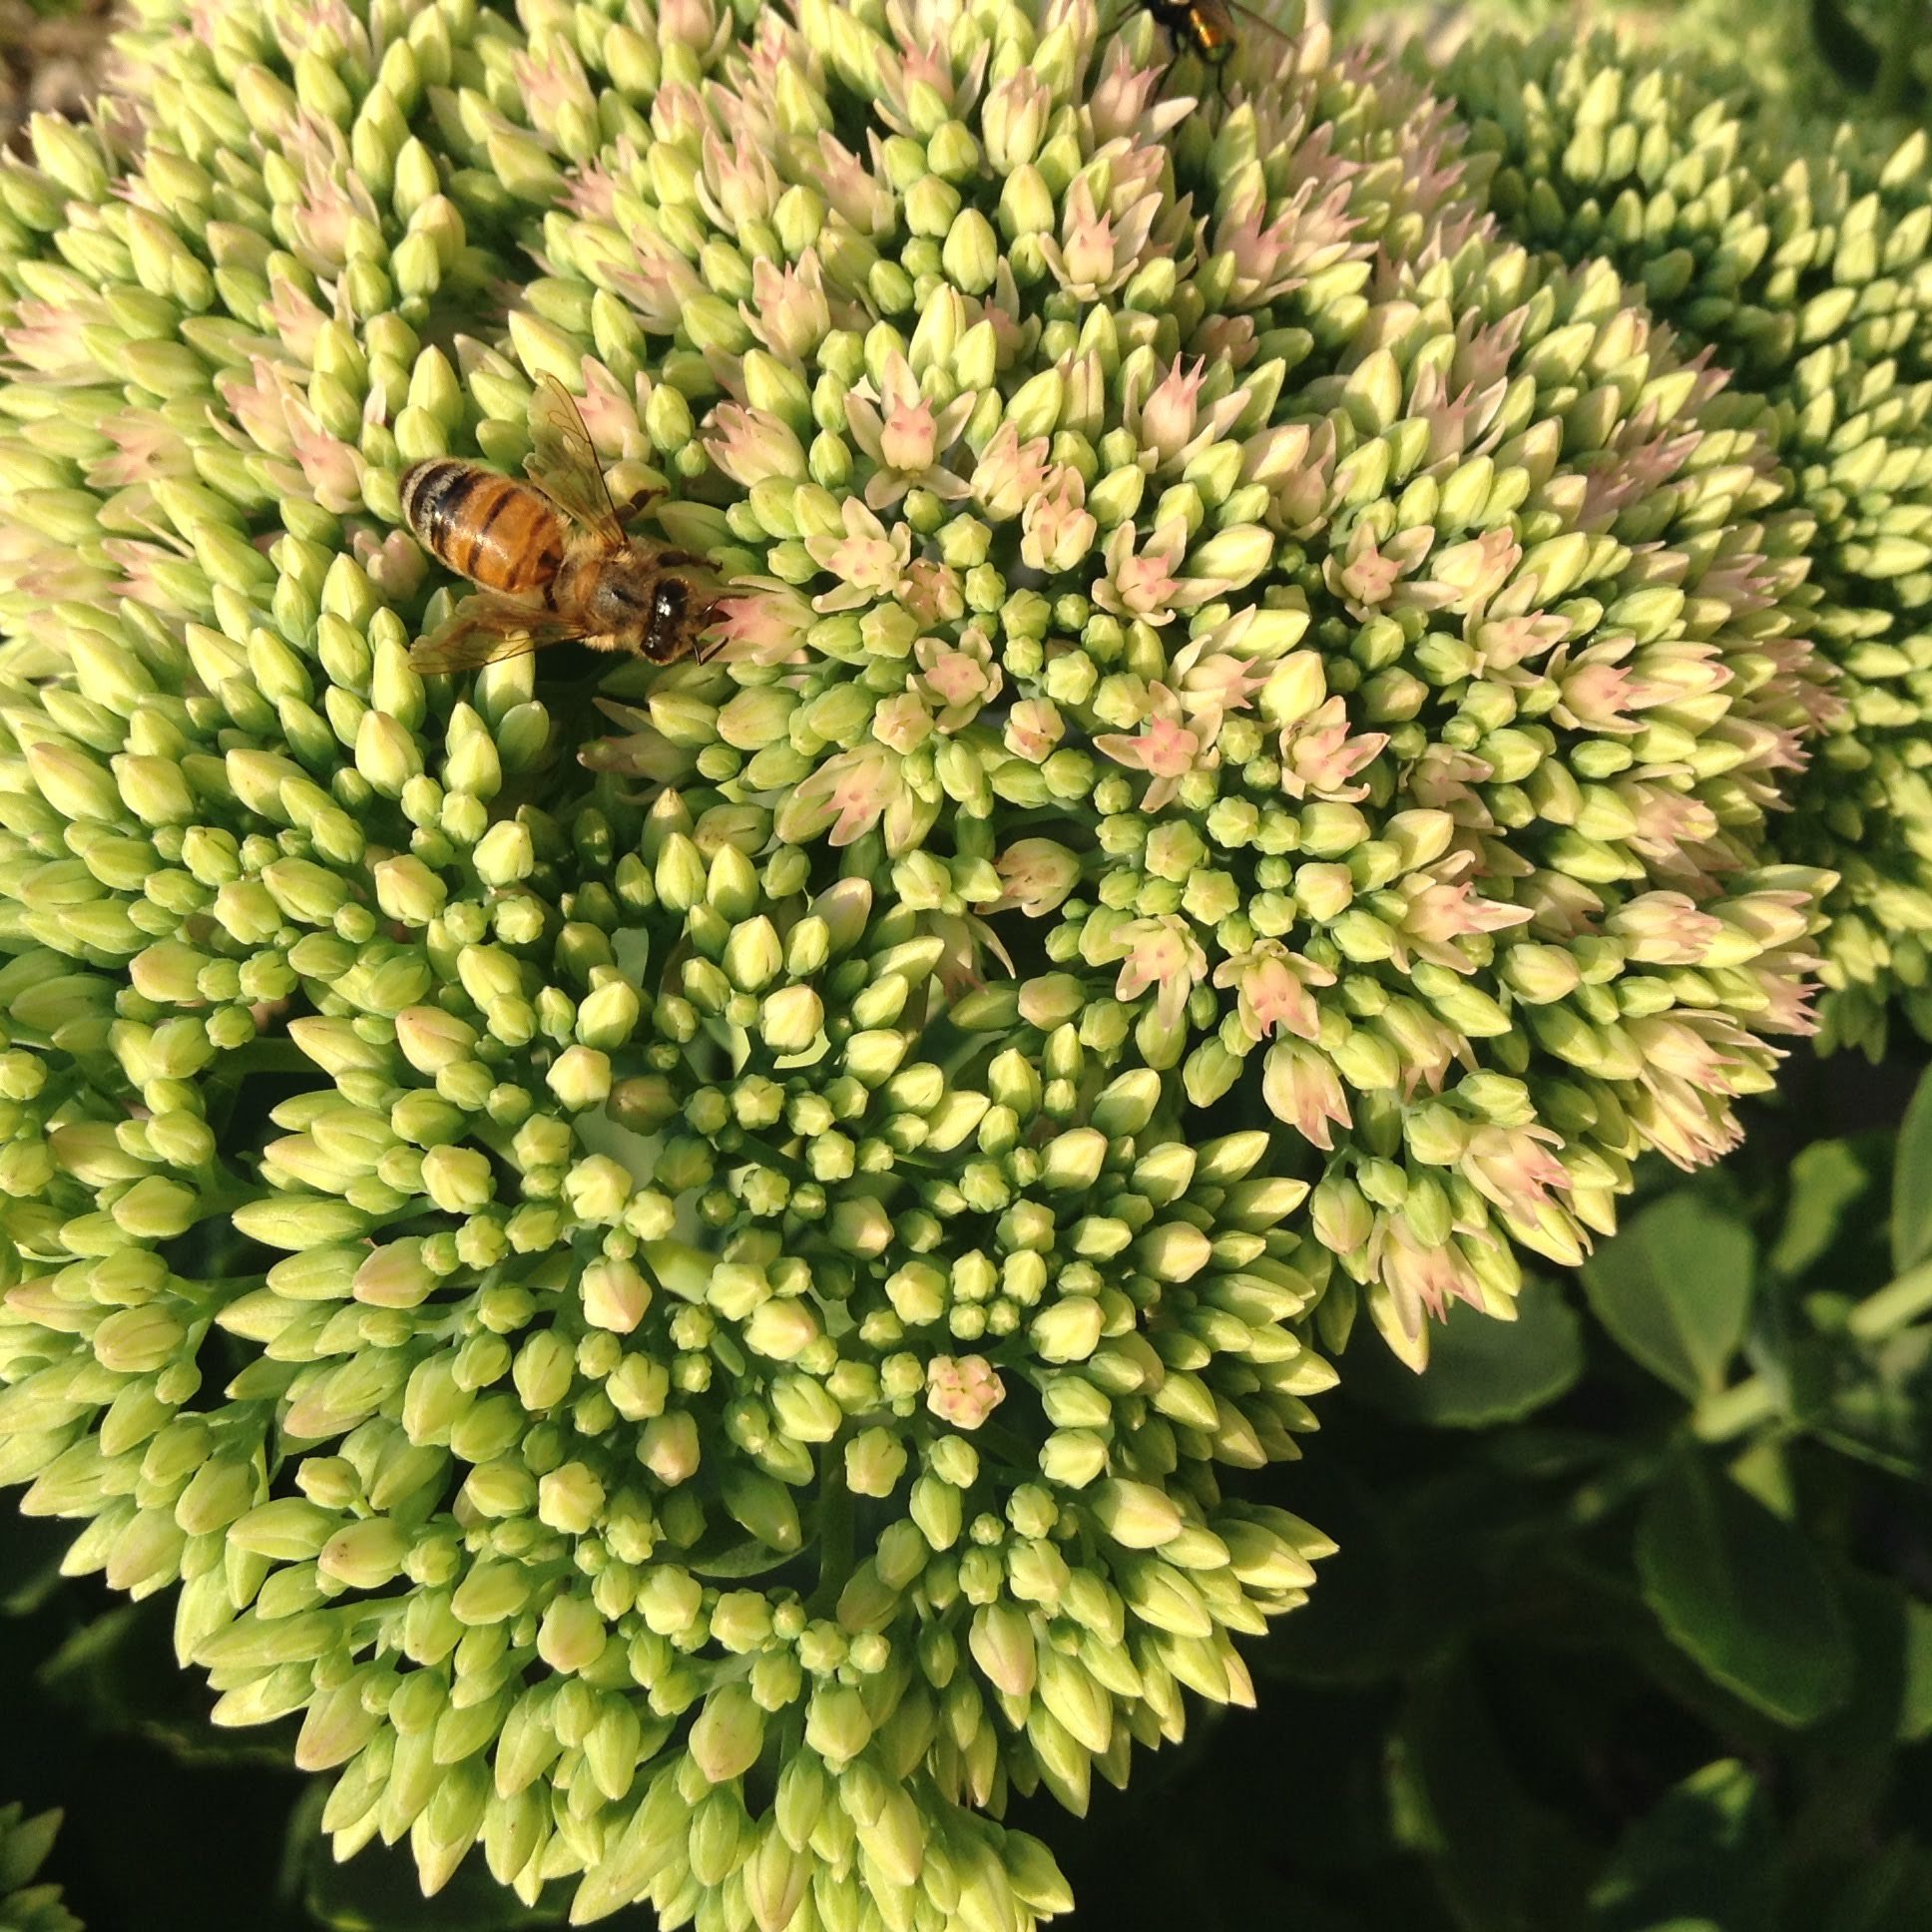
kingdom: Animalia
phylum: Arthropoda
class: Insecta
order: Hymenoptera
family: Apidae
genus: Apis
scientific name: Apis mellifera
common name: Honey bee
